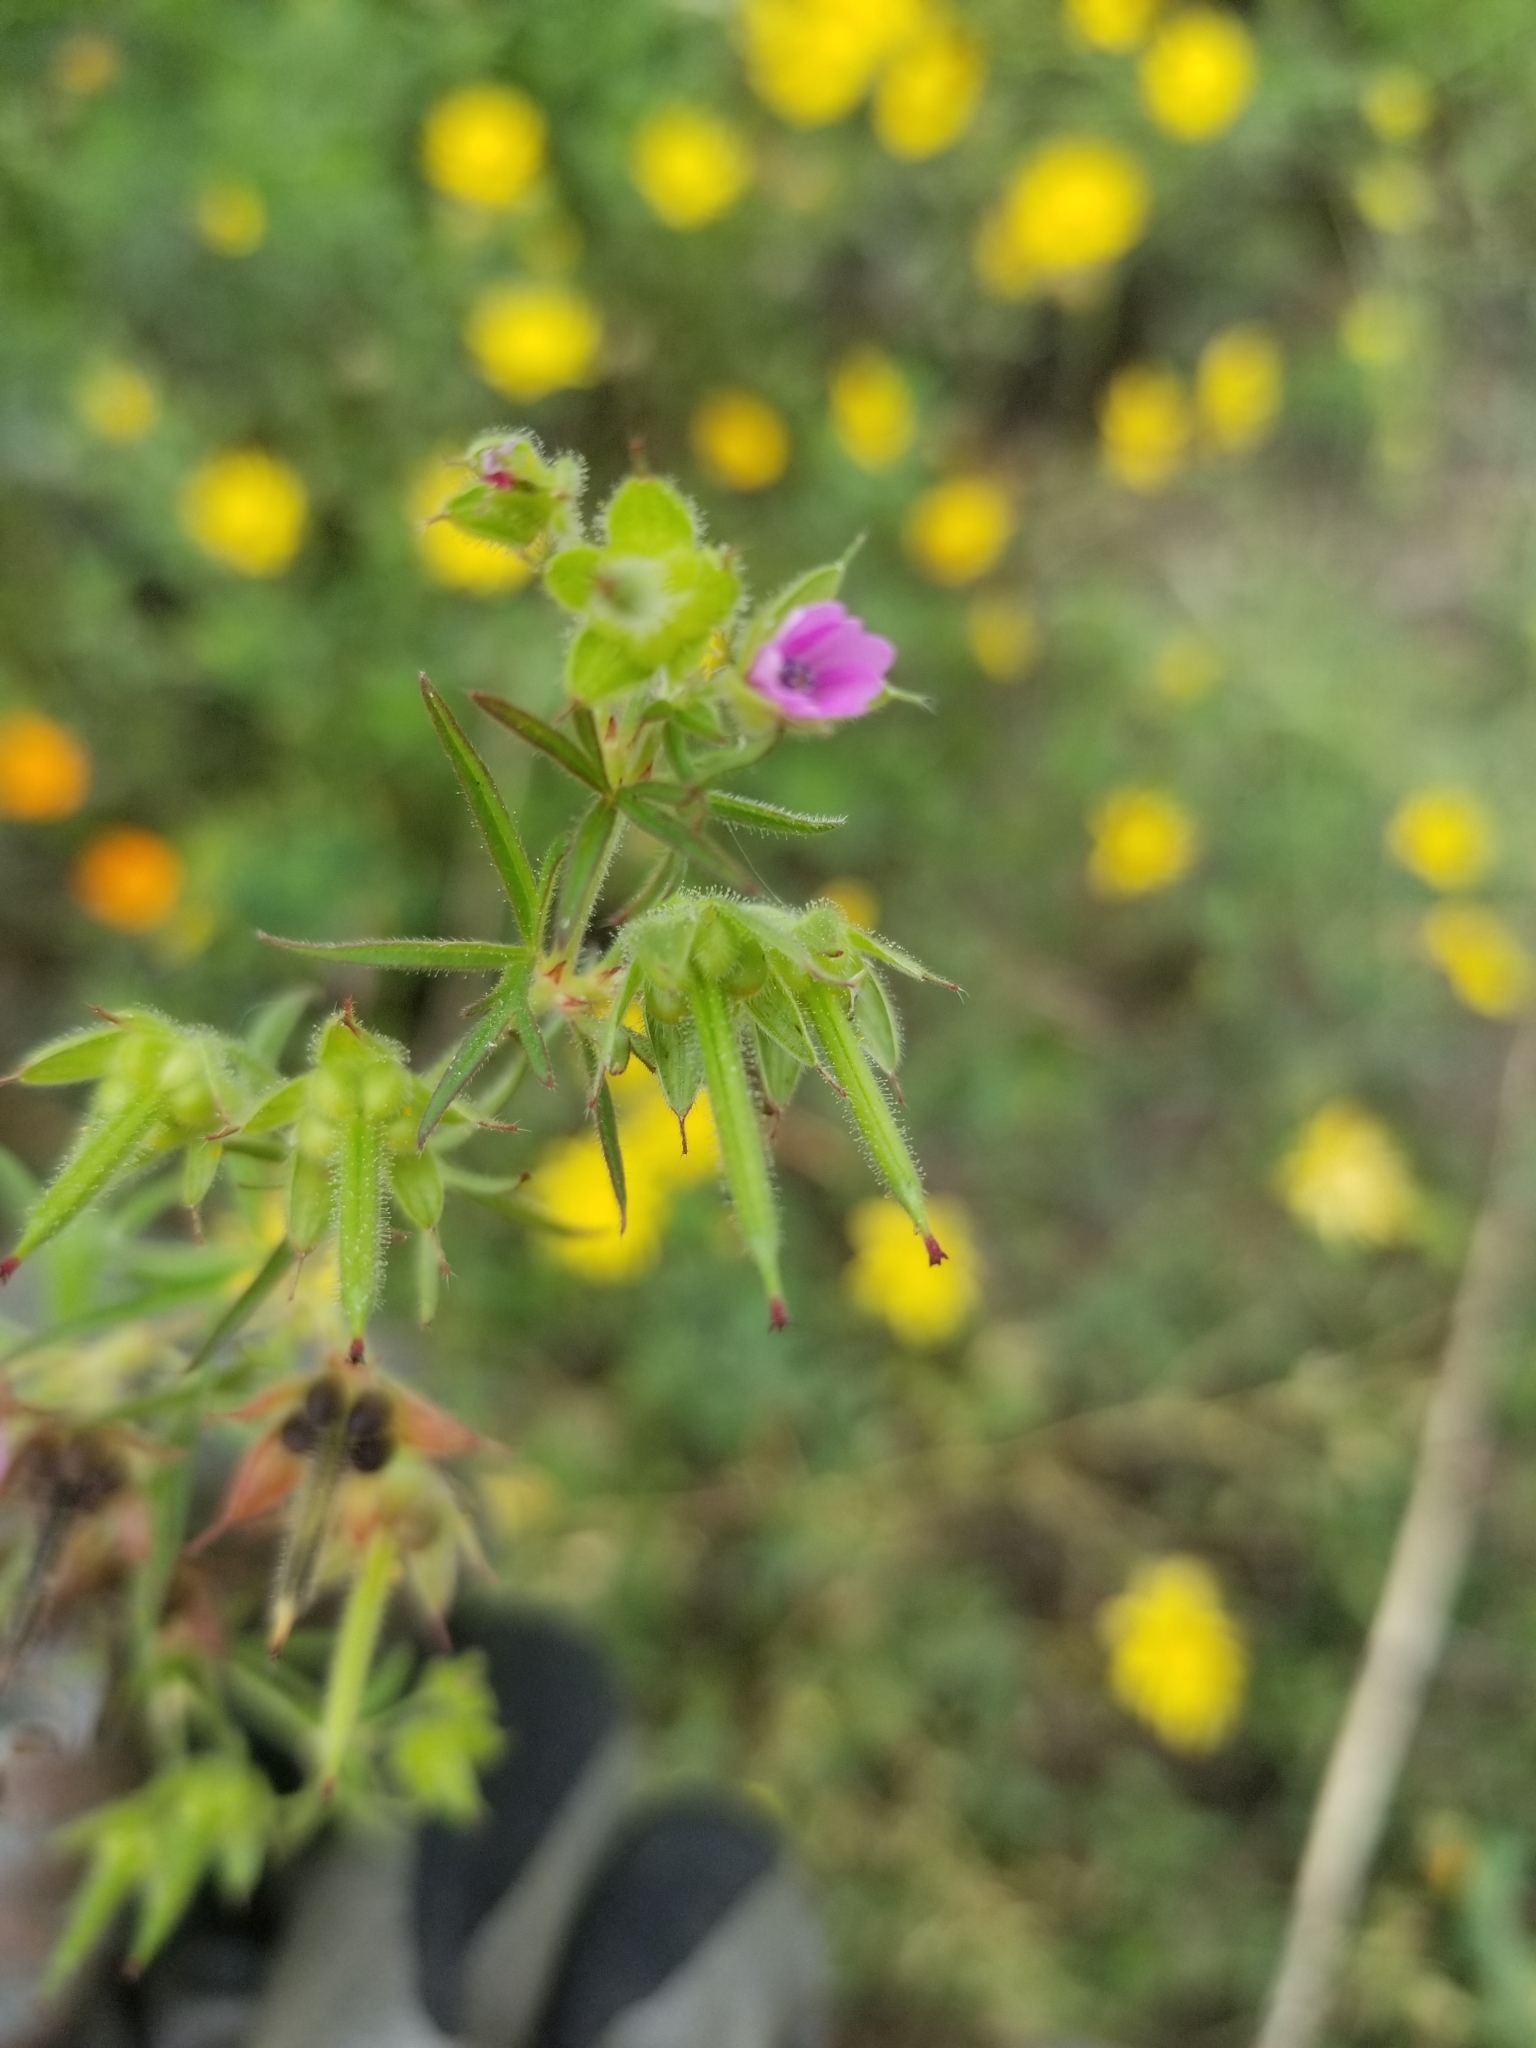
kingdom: Plantae
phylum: Tracheophyta
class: Magnoliopsida
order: Geraniales
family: Geraniaceae
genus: Geranium
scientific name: Geranium dissectum
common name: Cut-leaved crane's-bill
